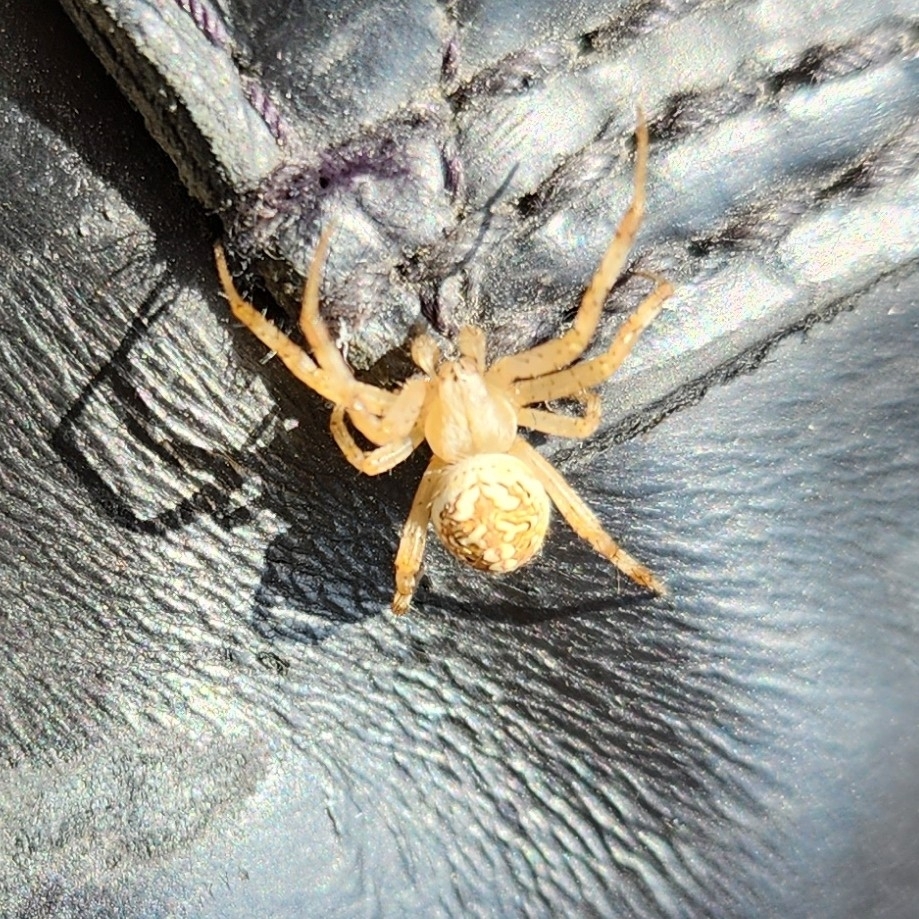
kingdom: Animalia
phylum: Arthropoda
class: Arachnida
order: Araneae
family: Araneidae
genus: Neoscona
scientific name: Neoscona oaxacensis
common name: Orb weavers
